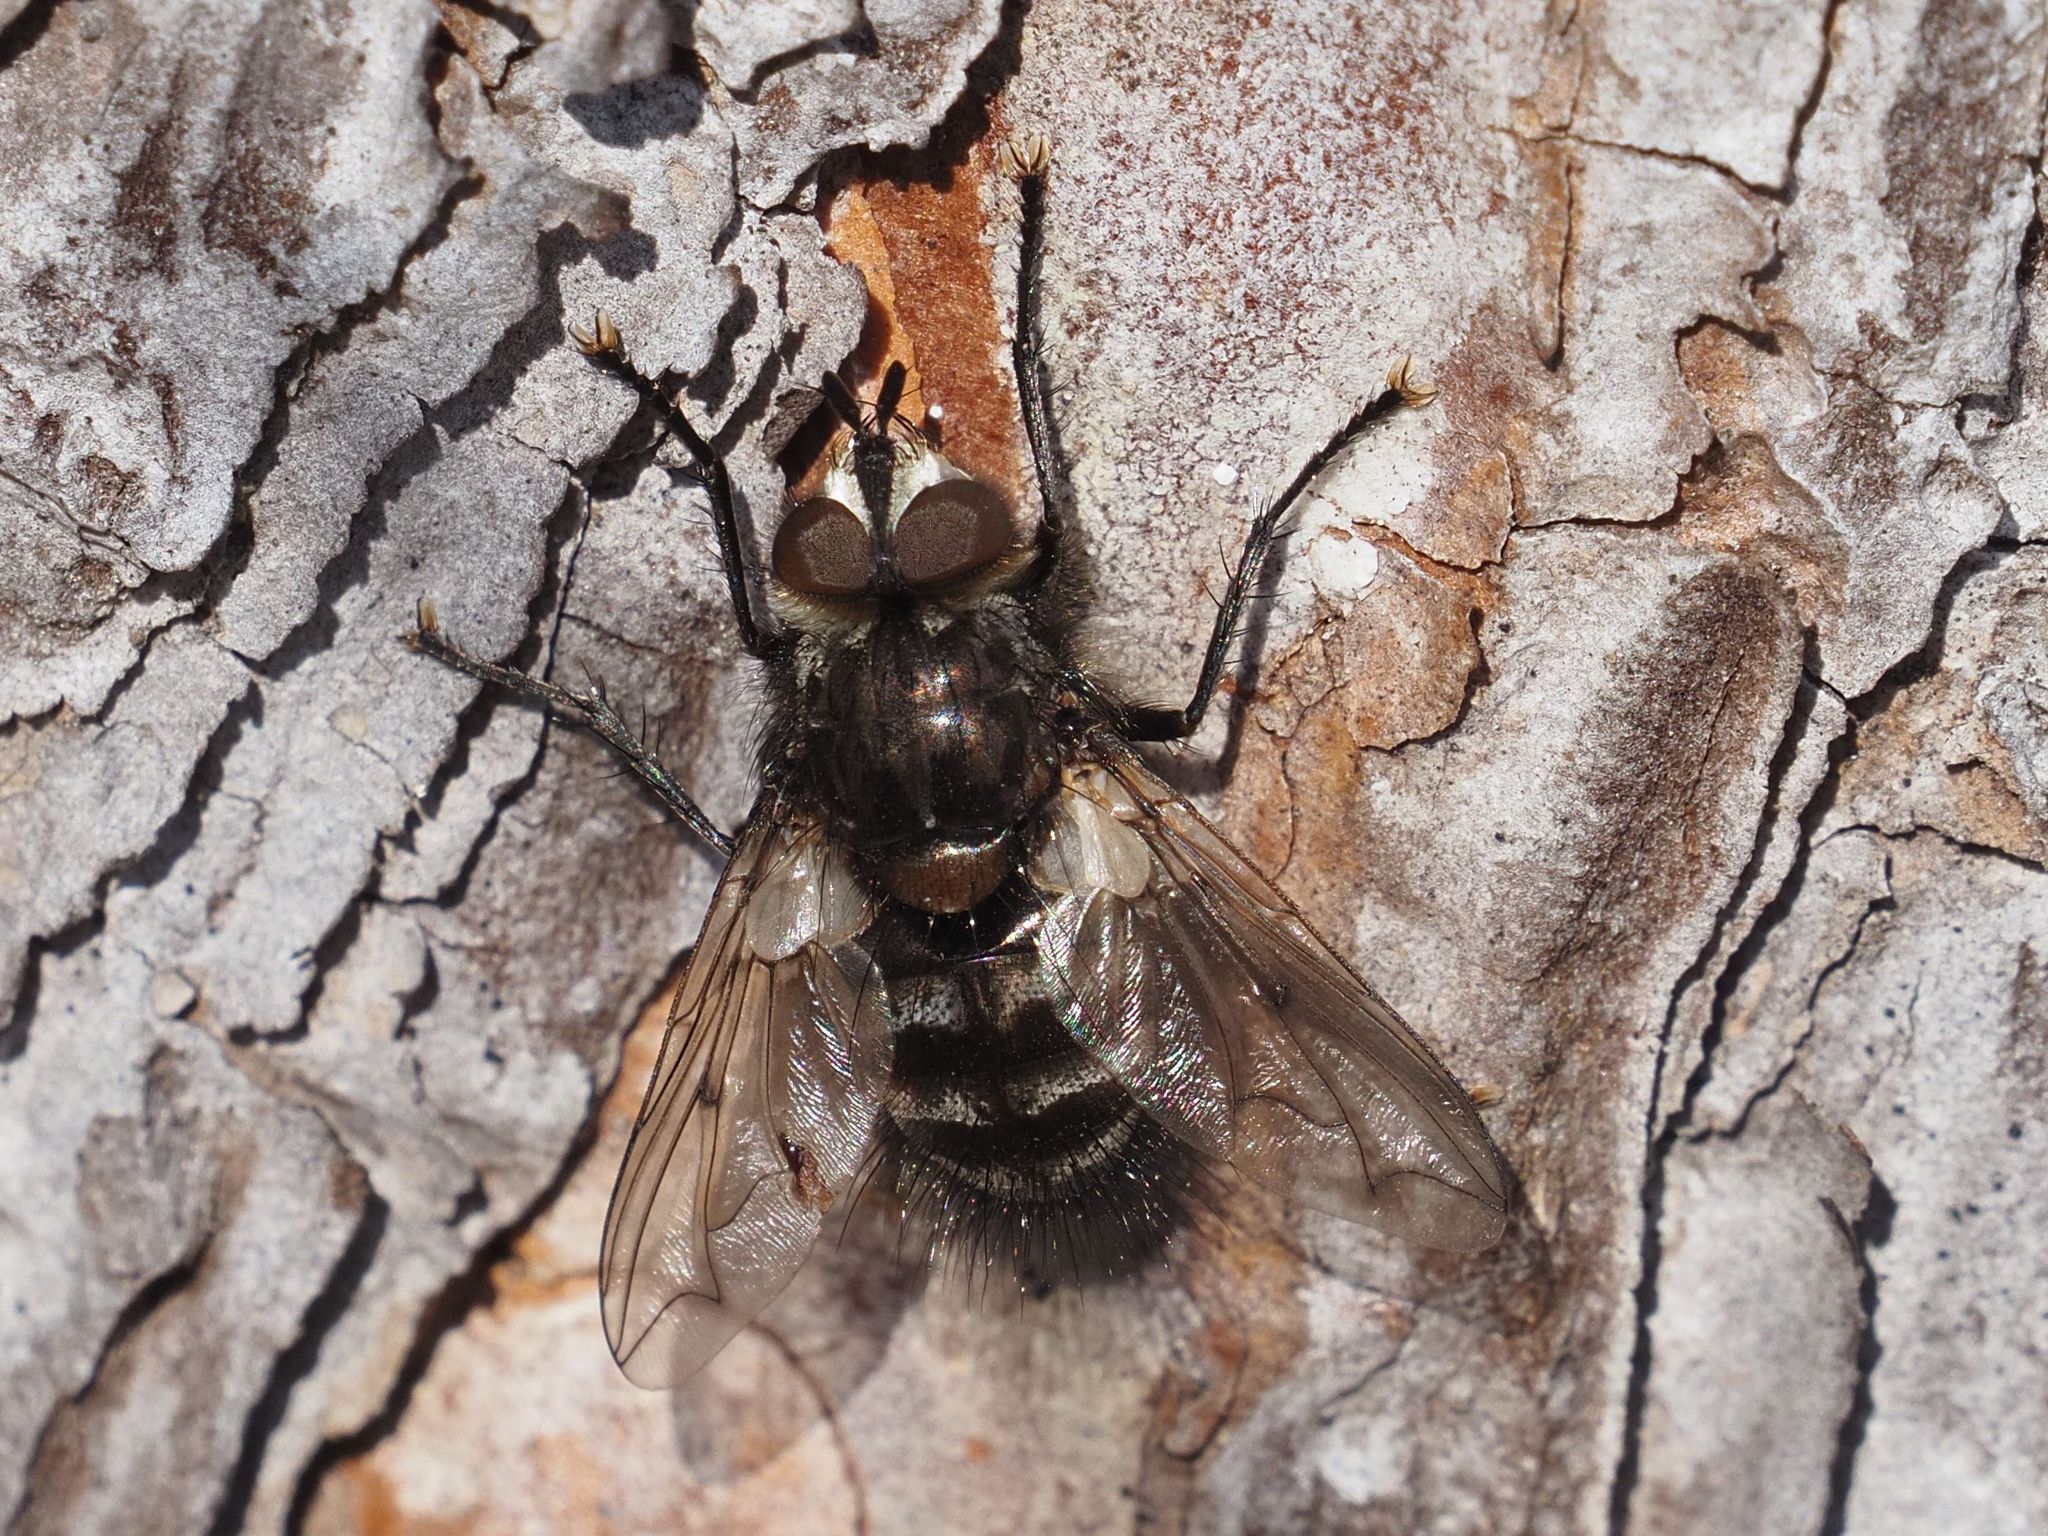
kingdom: Animalia
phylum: Arthropoda
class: Insecta
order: Diptera
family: Tachinidae
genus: Panzeria
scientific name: Panzeria puparum
